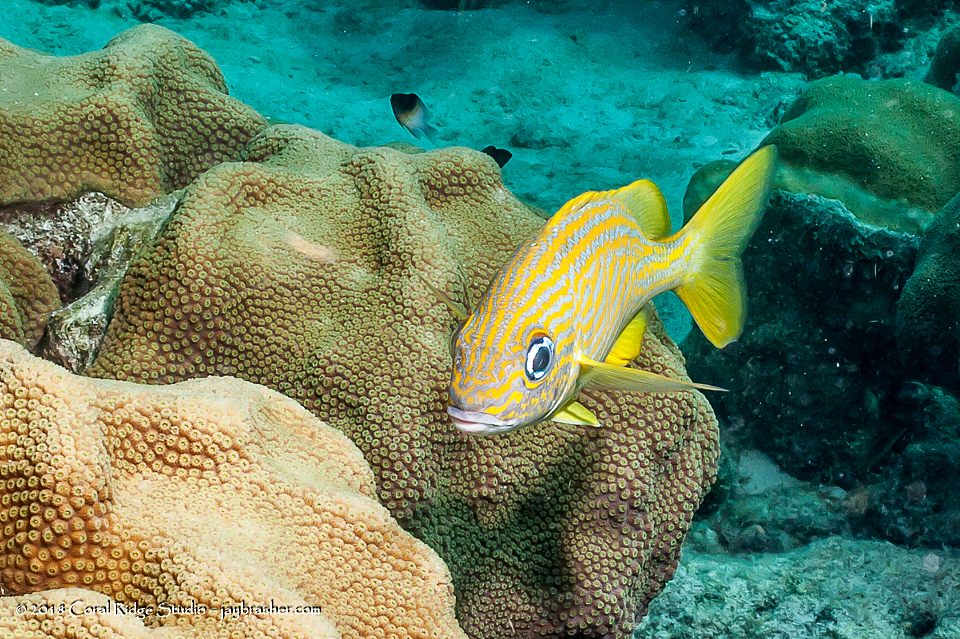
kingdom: Animalia
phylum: Chordata
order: Perciformes
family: Haemulidae
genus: Haemulon
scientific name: Haemulon flavolineatum
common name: French grunt
